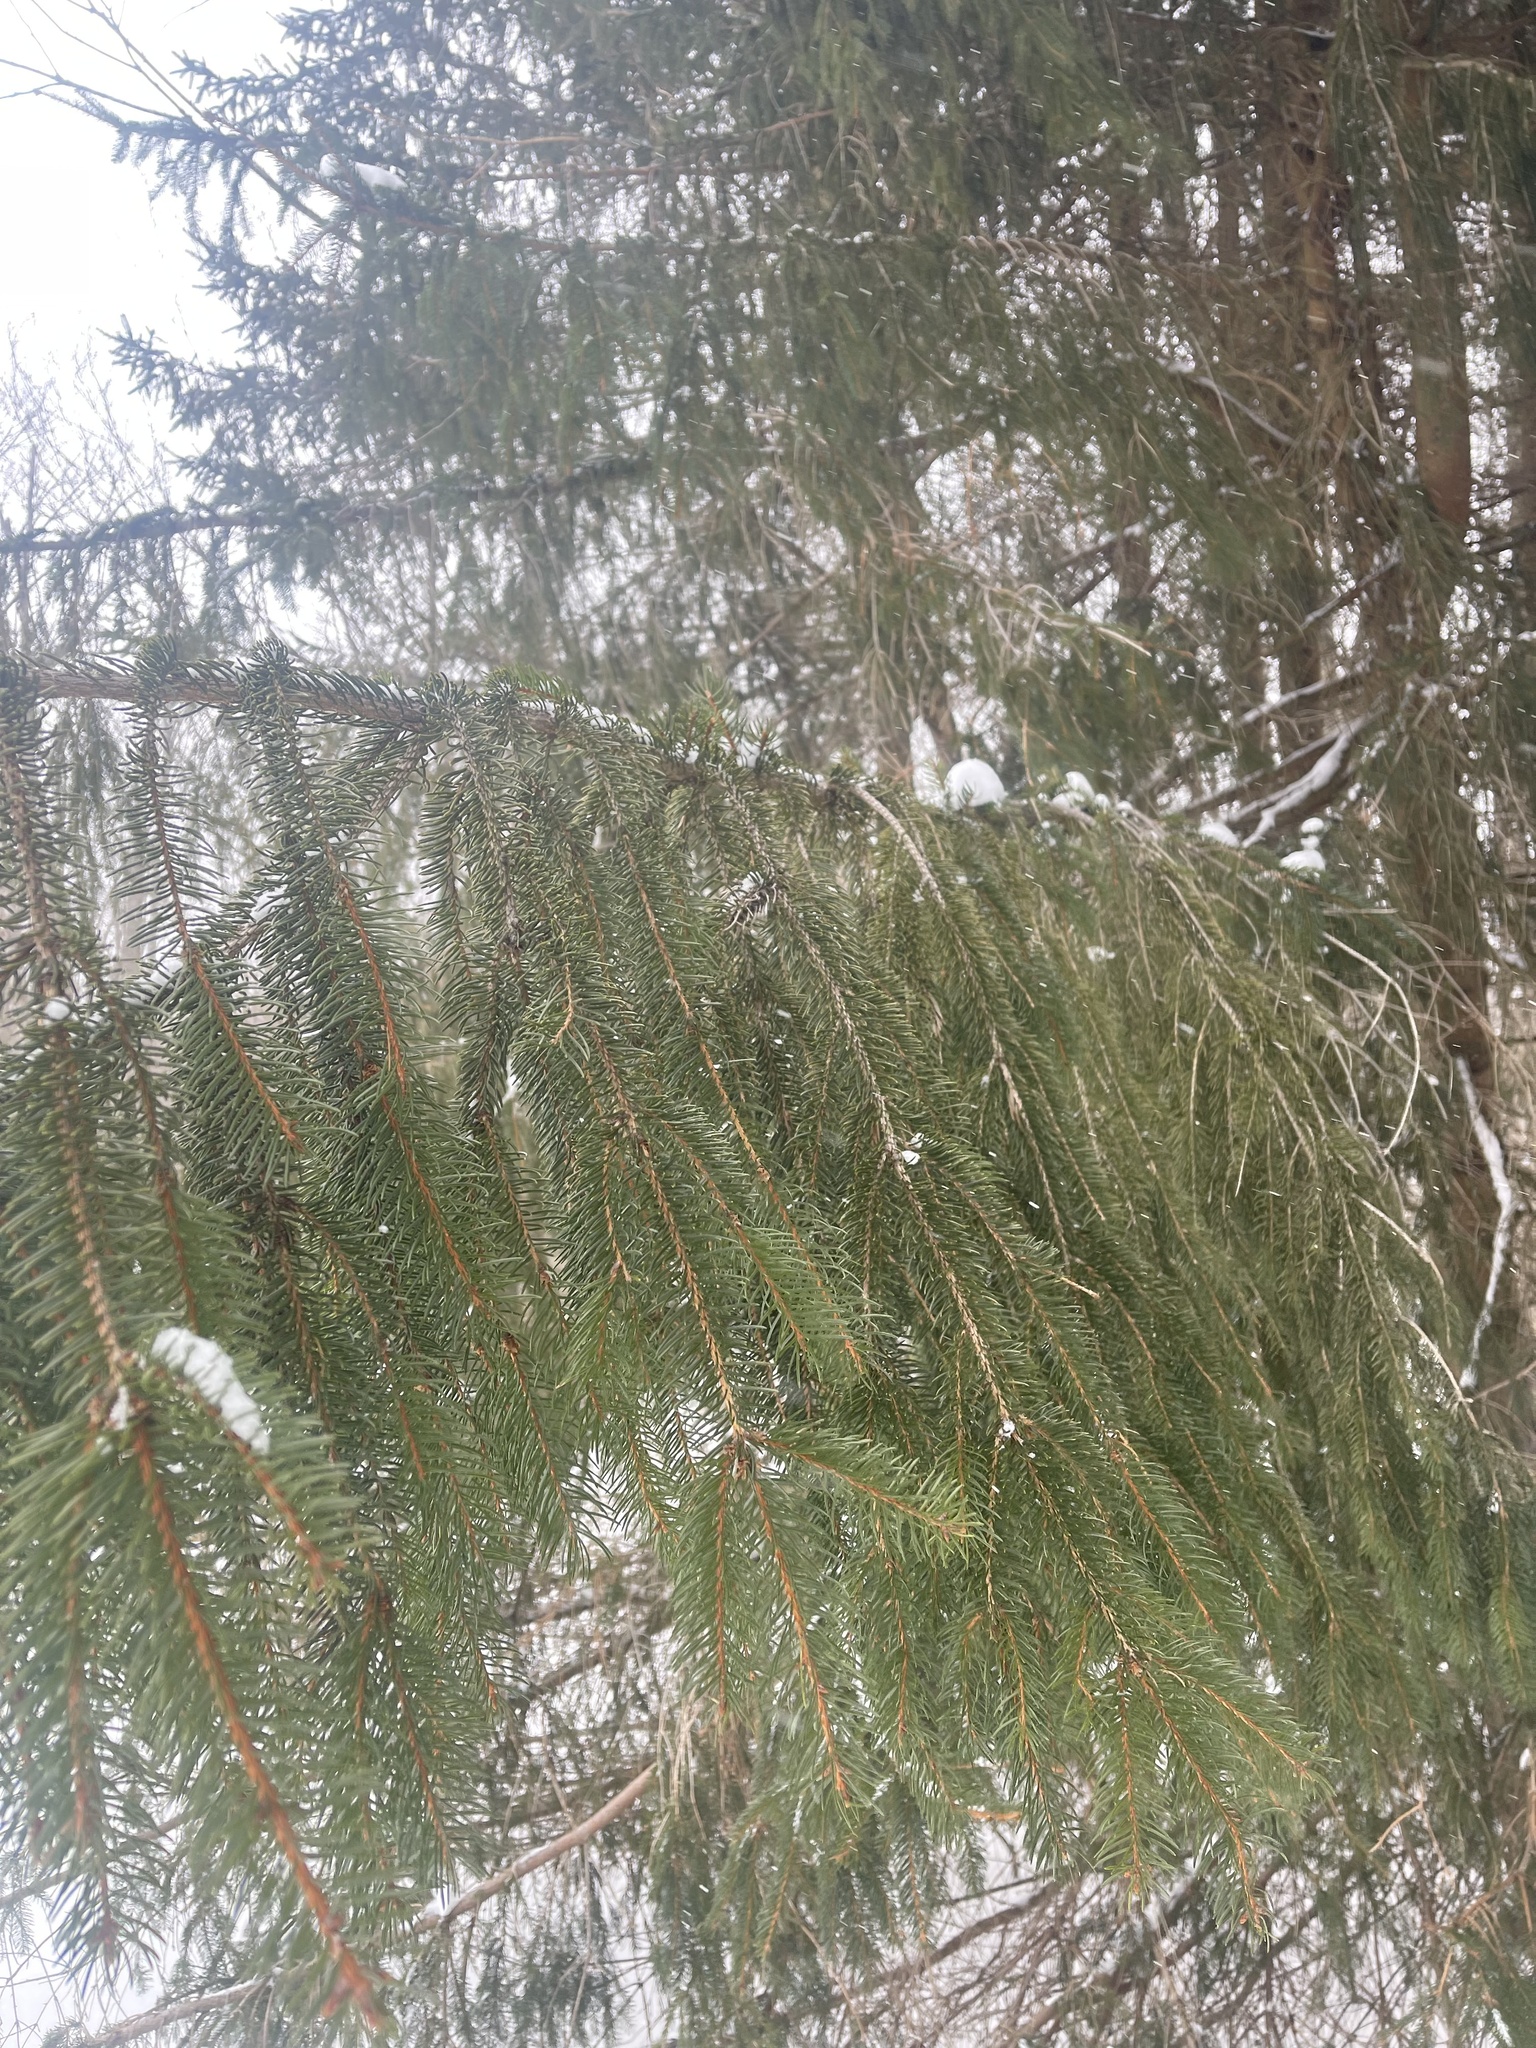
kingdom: Plantae
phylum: Tracheophyta
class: Pinopsida
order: Pinales
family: Pinaceae
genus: Picea
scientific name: Picea abies
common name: Norway spruce
